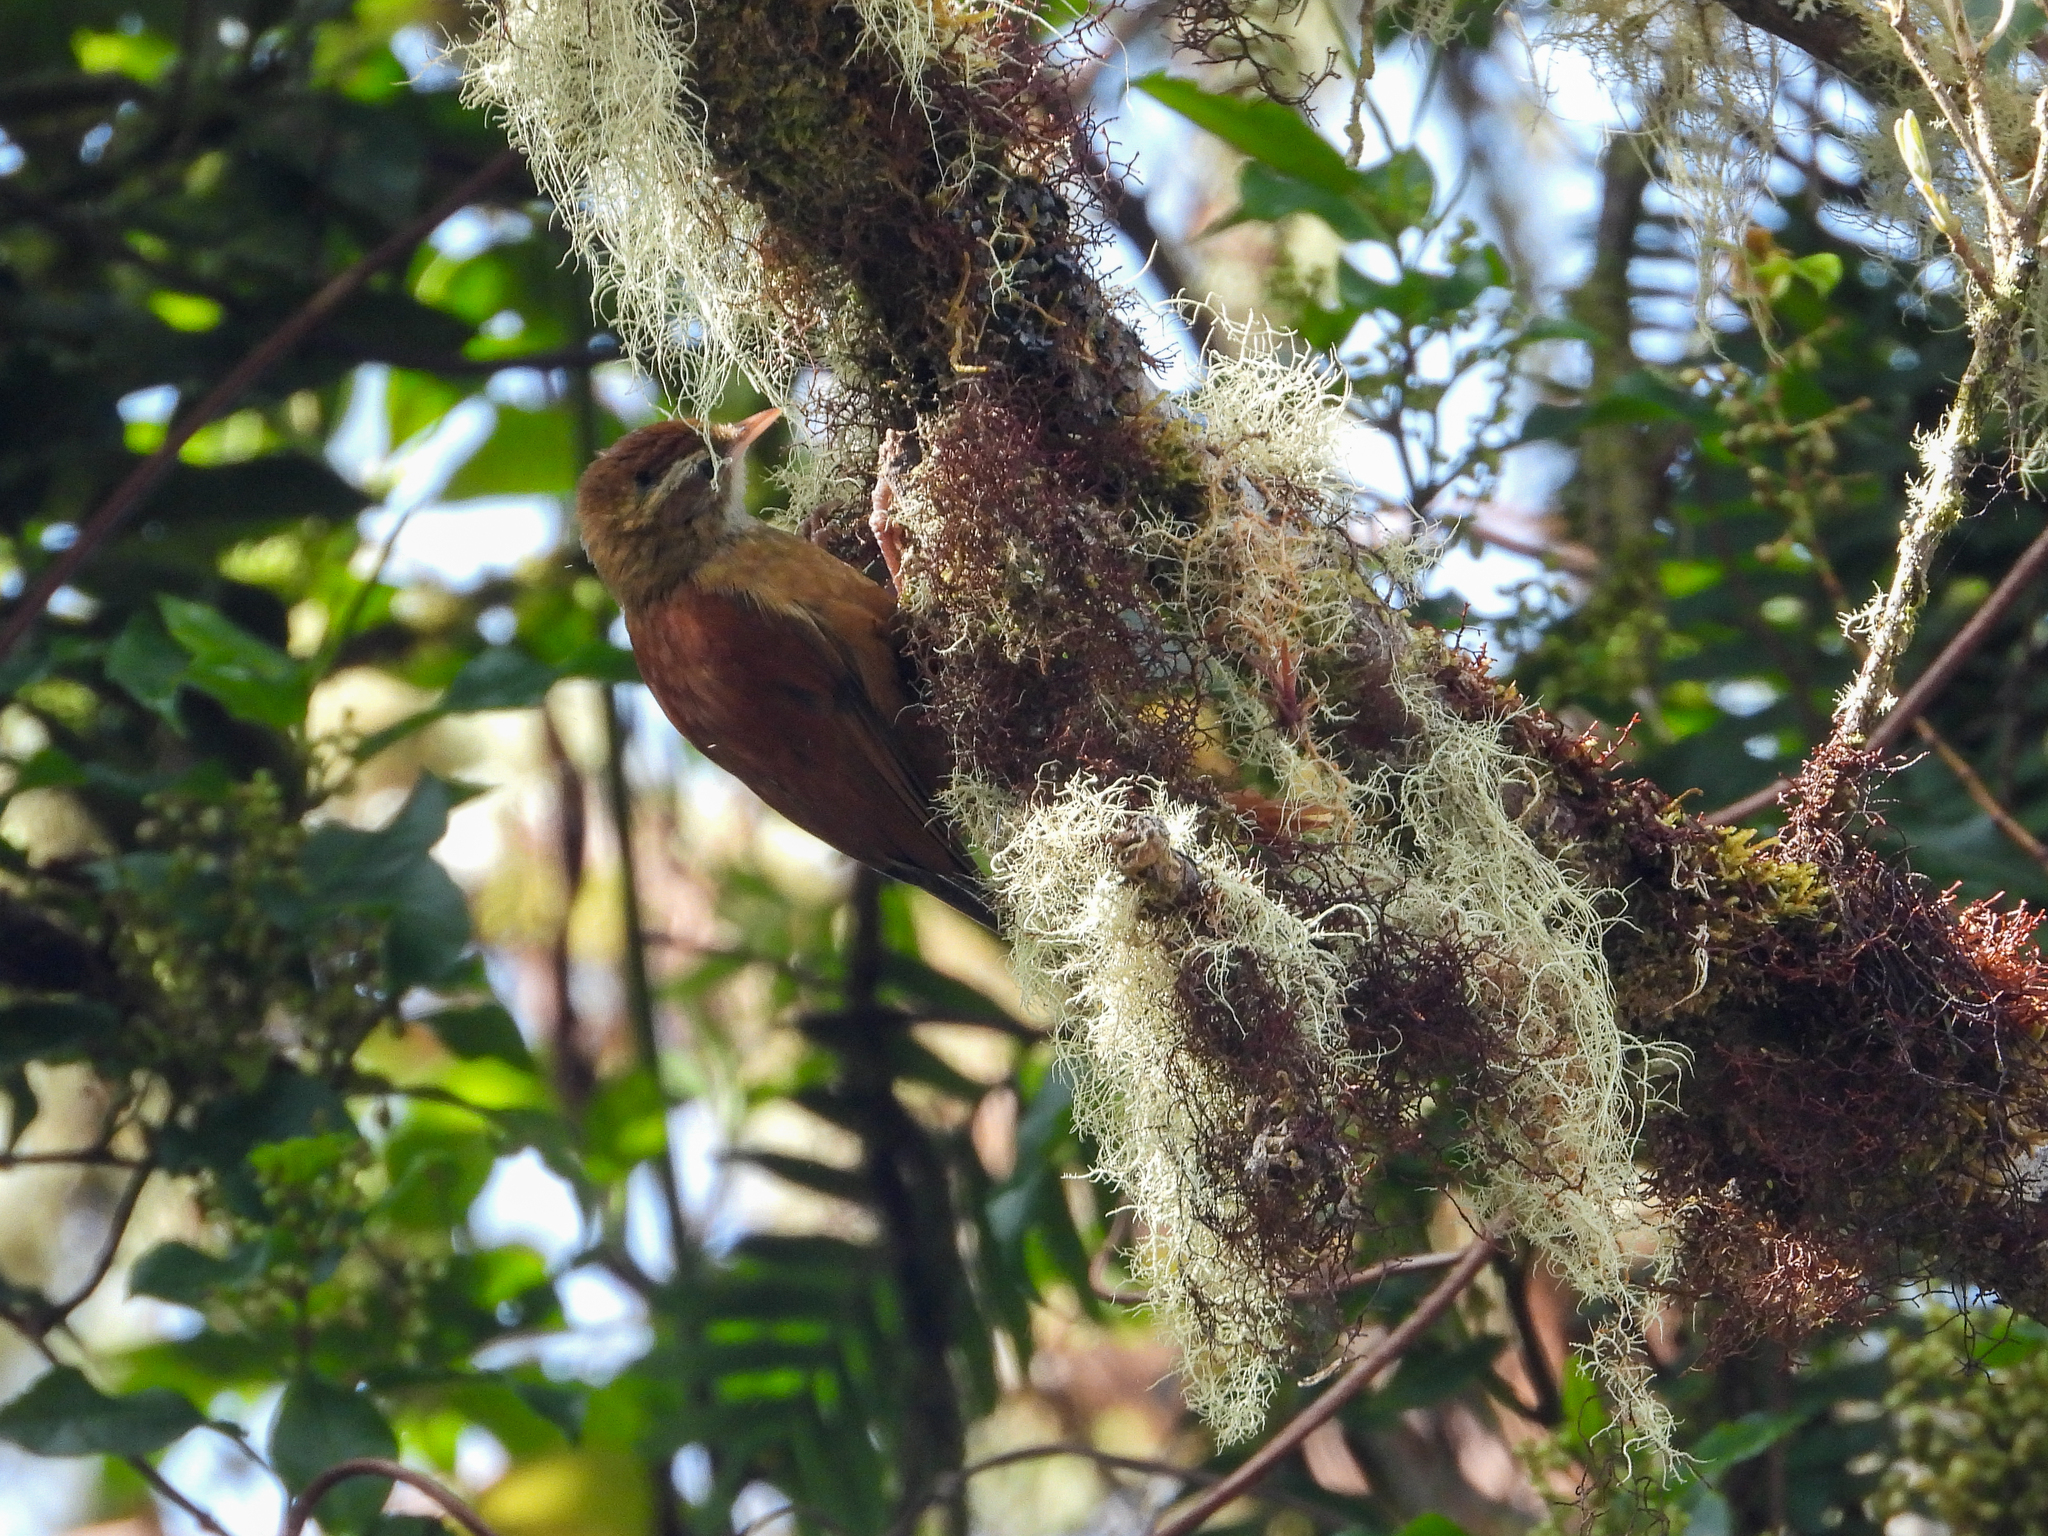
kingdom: Animalia
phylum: Chordata
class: Aves
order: Passeriformes
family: Furnariidae
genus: Margarornis
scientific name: Margarornis rubiginosus
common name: Ruddy treerunner
